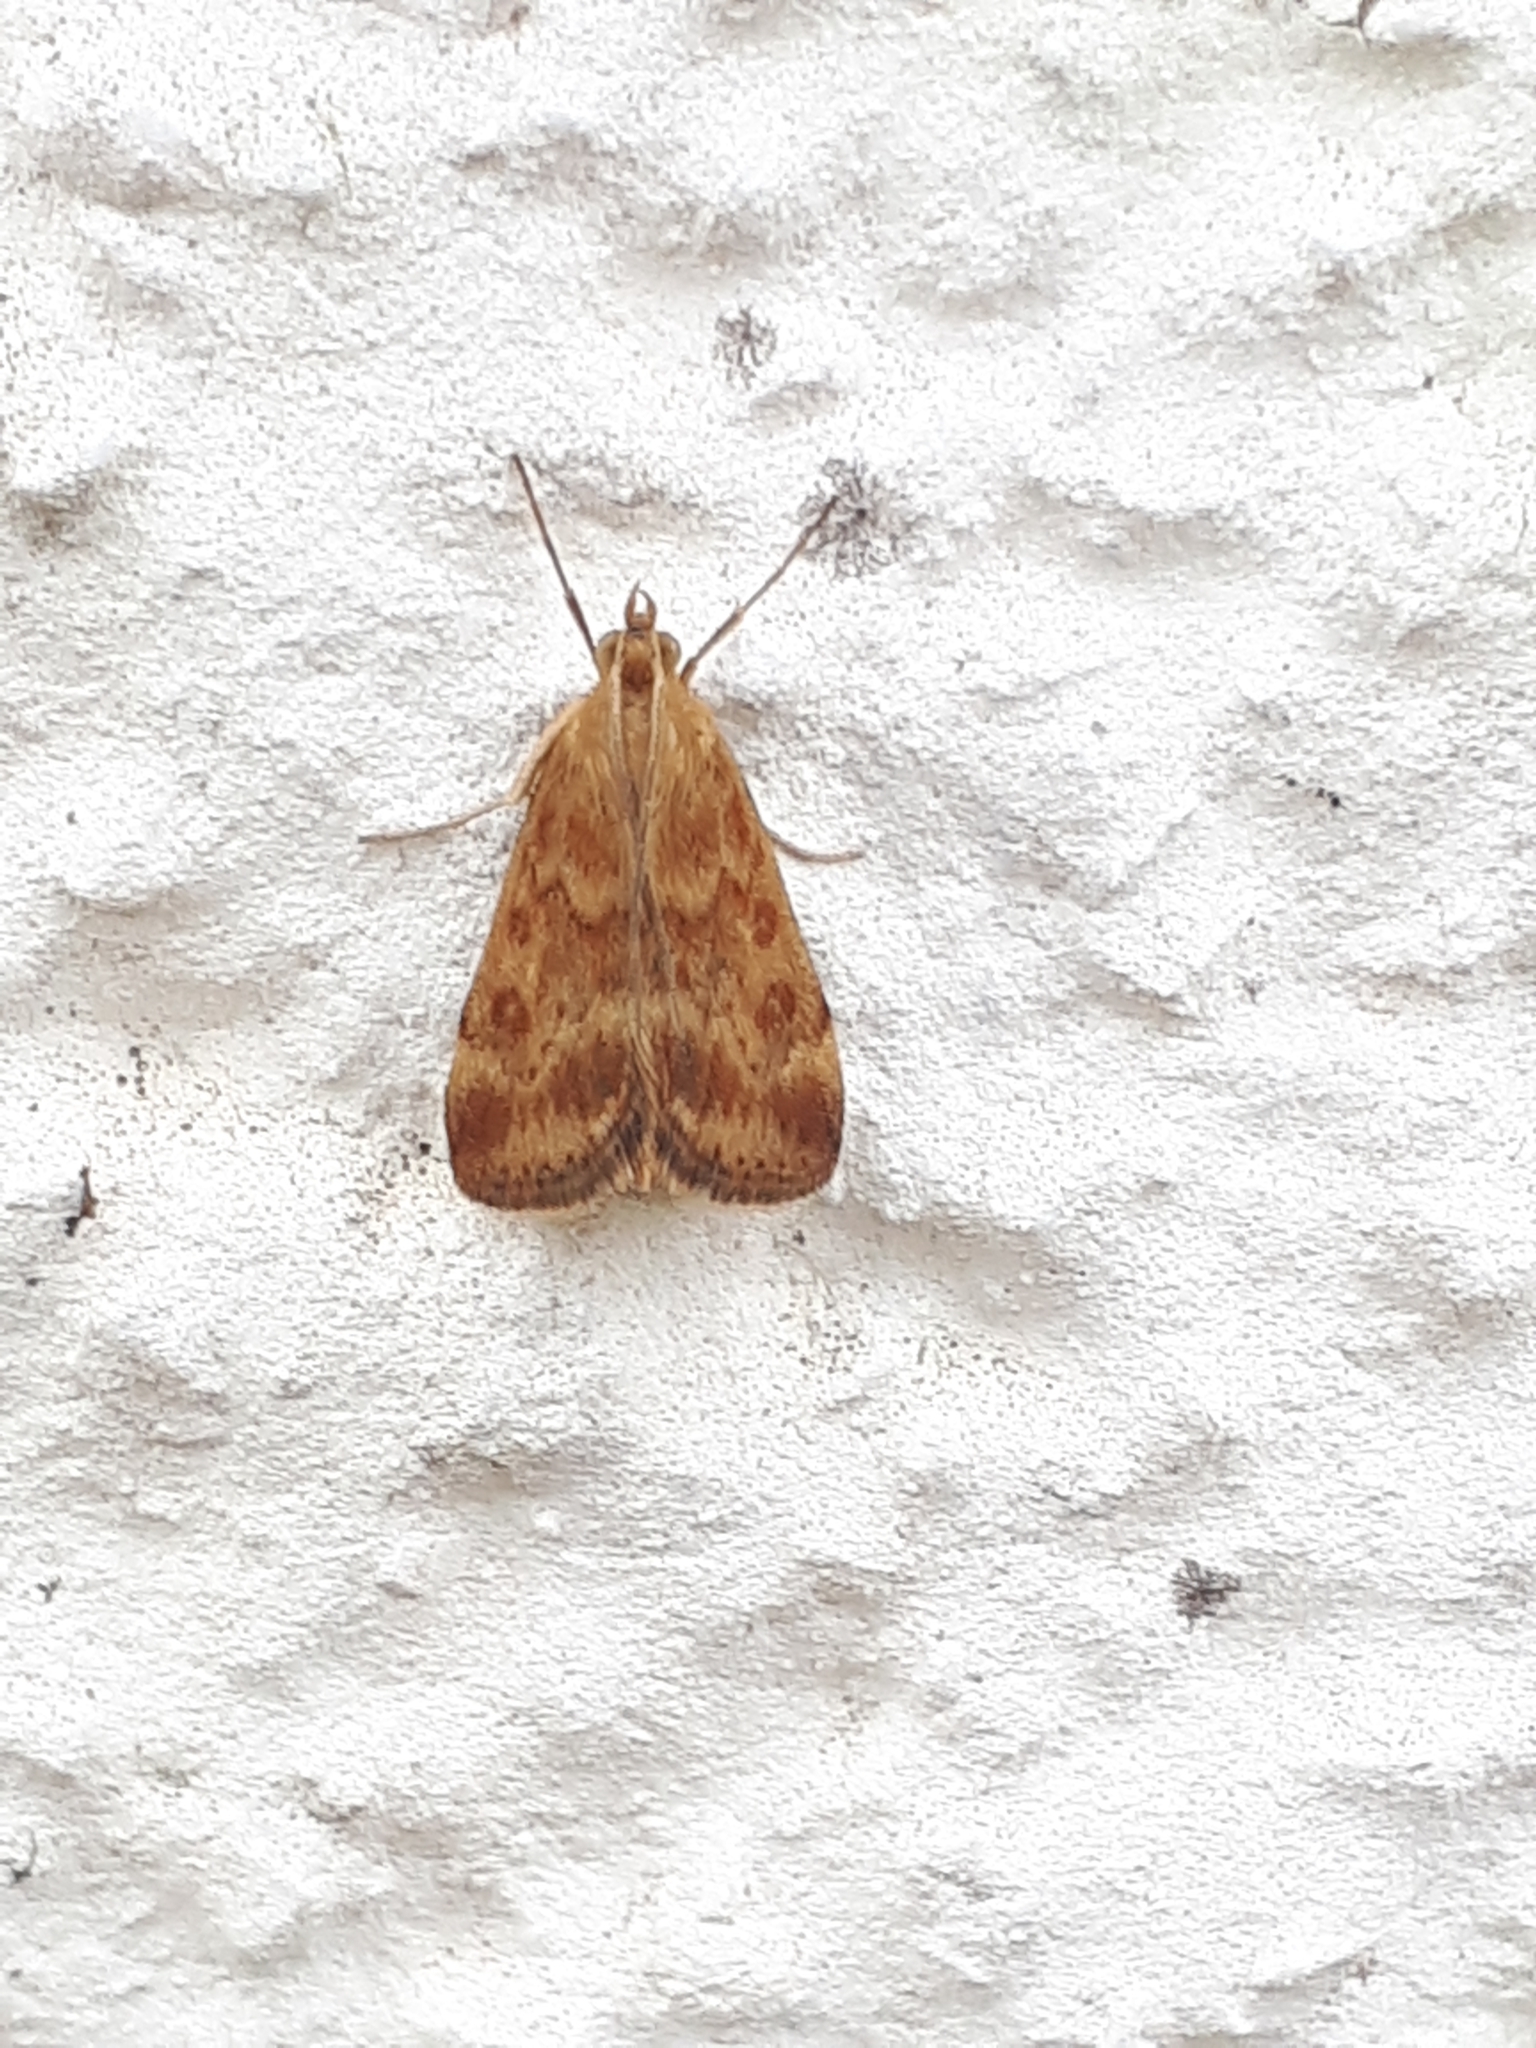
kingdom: Animalia
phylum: Arthropoda
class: Insecta
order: Lepidoptera
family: Crambidae
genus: Pyrausta
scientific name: Pyrausta despicata
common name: Straw-barred pearl
